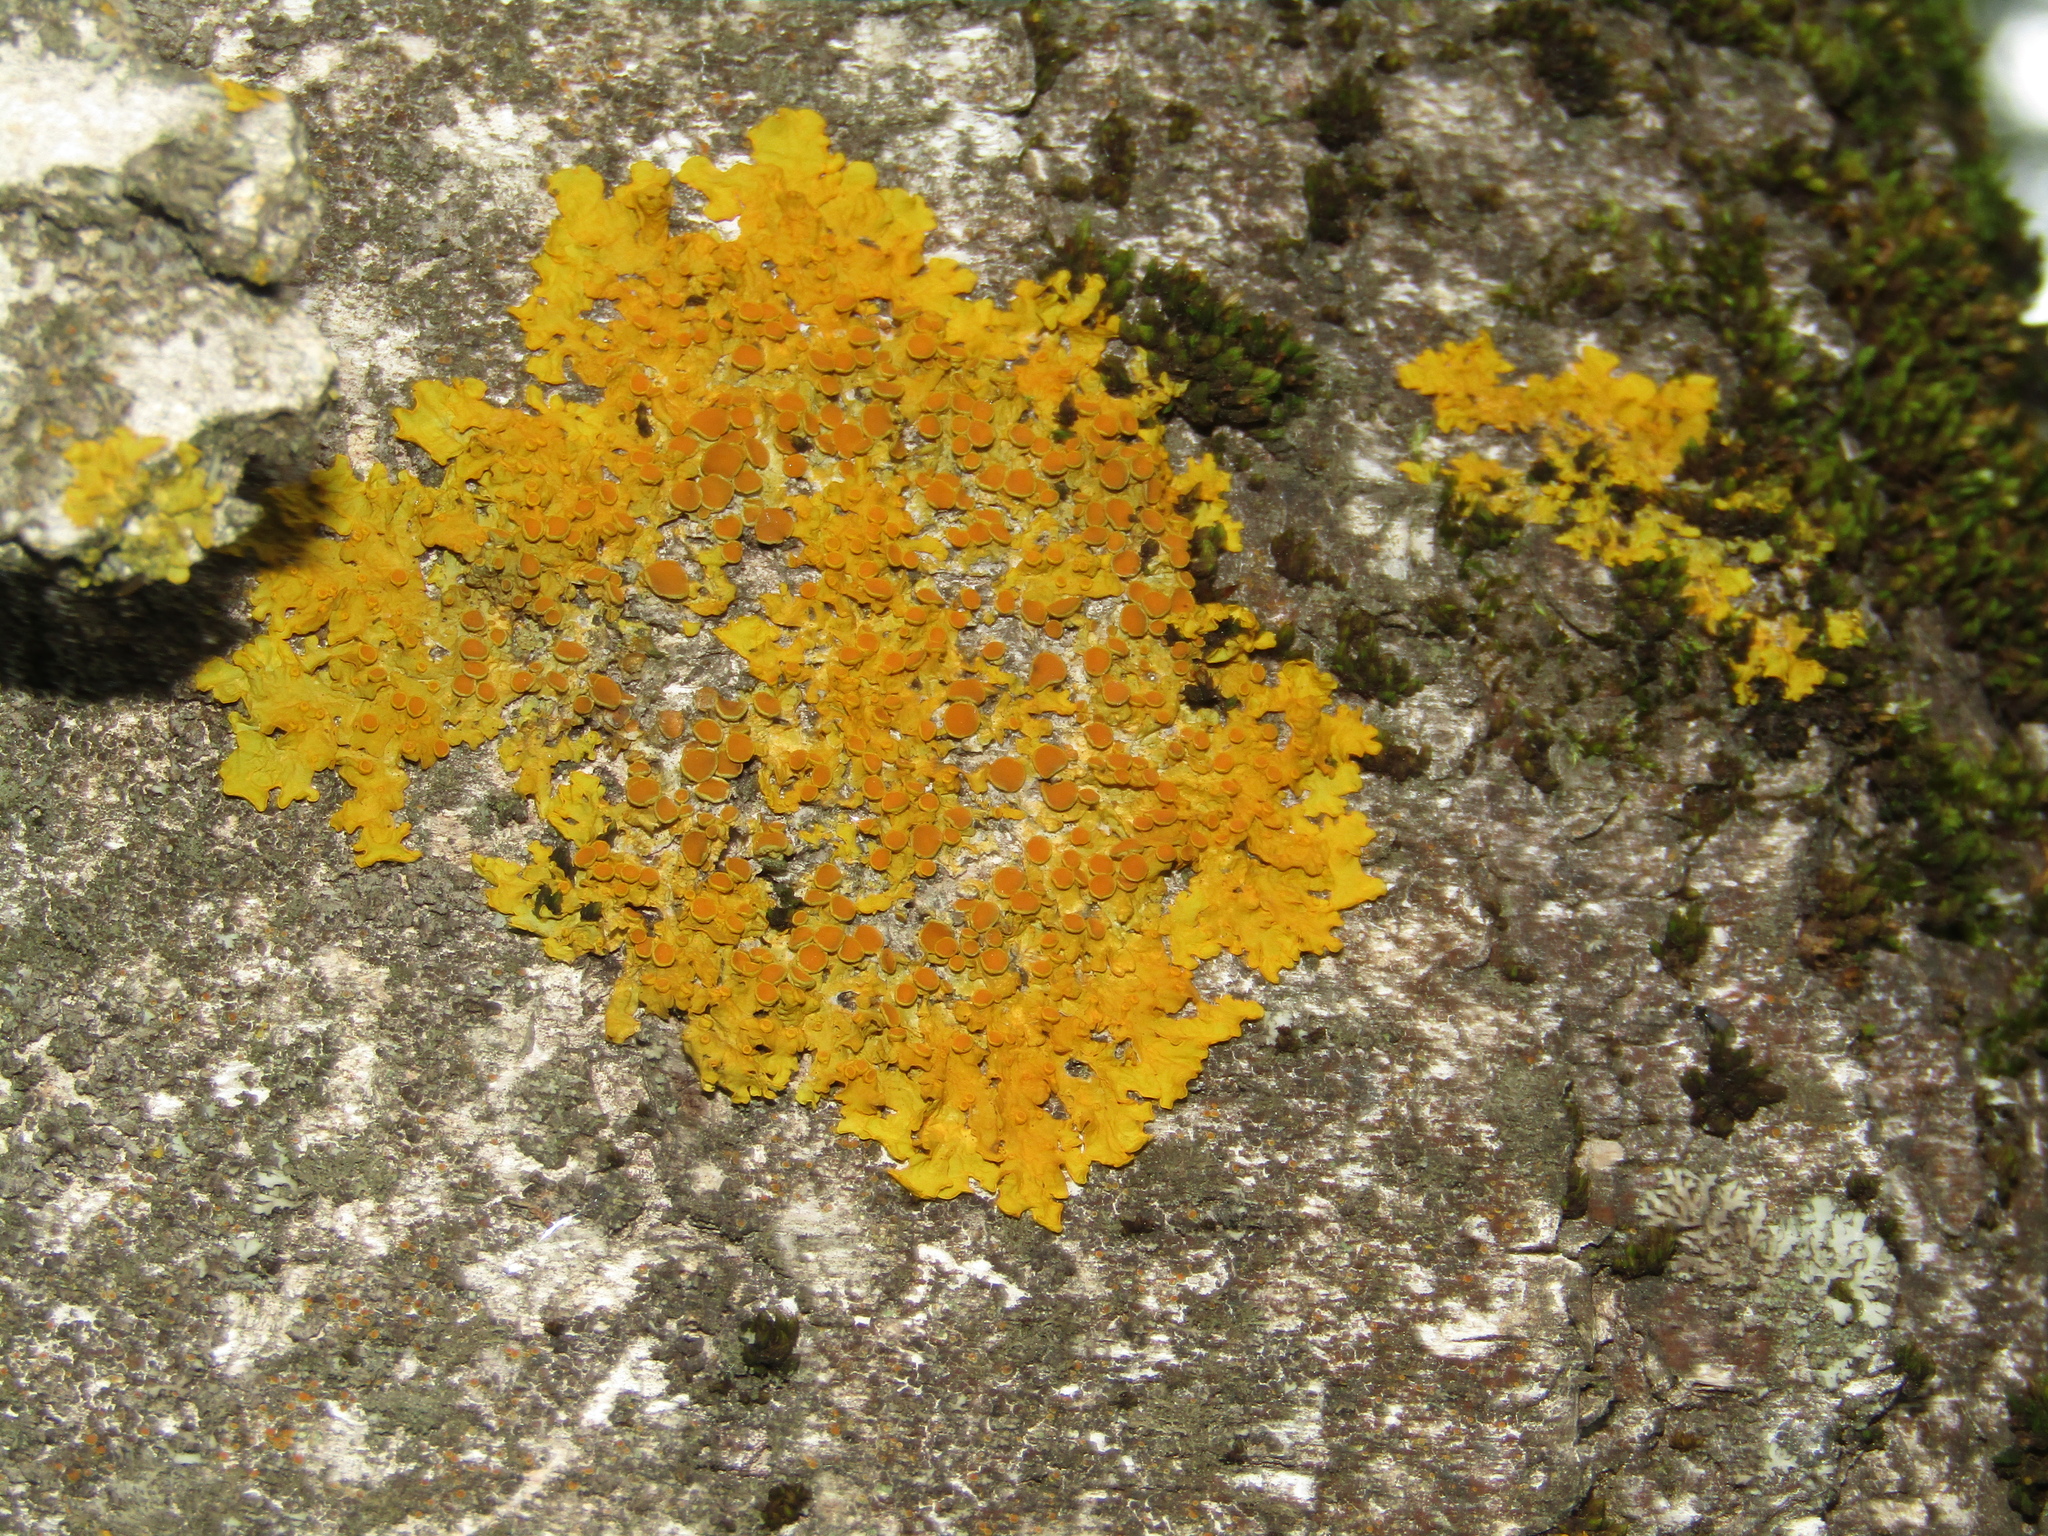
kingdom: Fungi
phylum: Ascomycota
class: Lecanoromycetes
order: Teloschistales
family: Teloschistaceae
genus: Xanthoria
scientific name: Xanthoria parietina
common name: Common orange lichen
